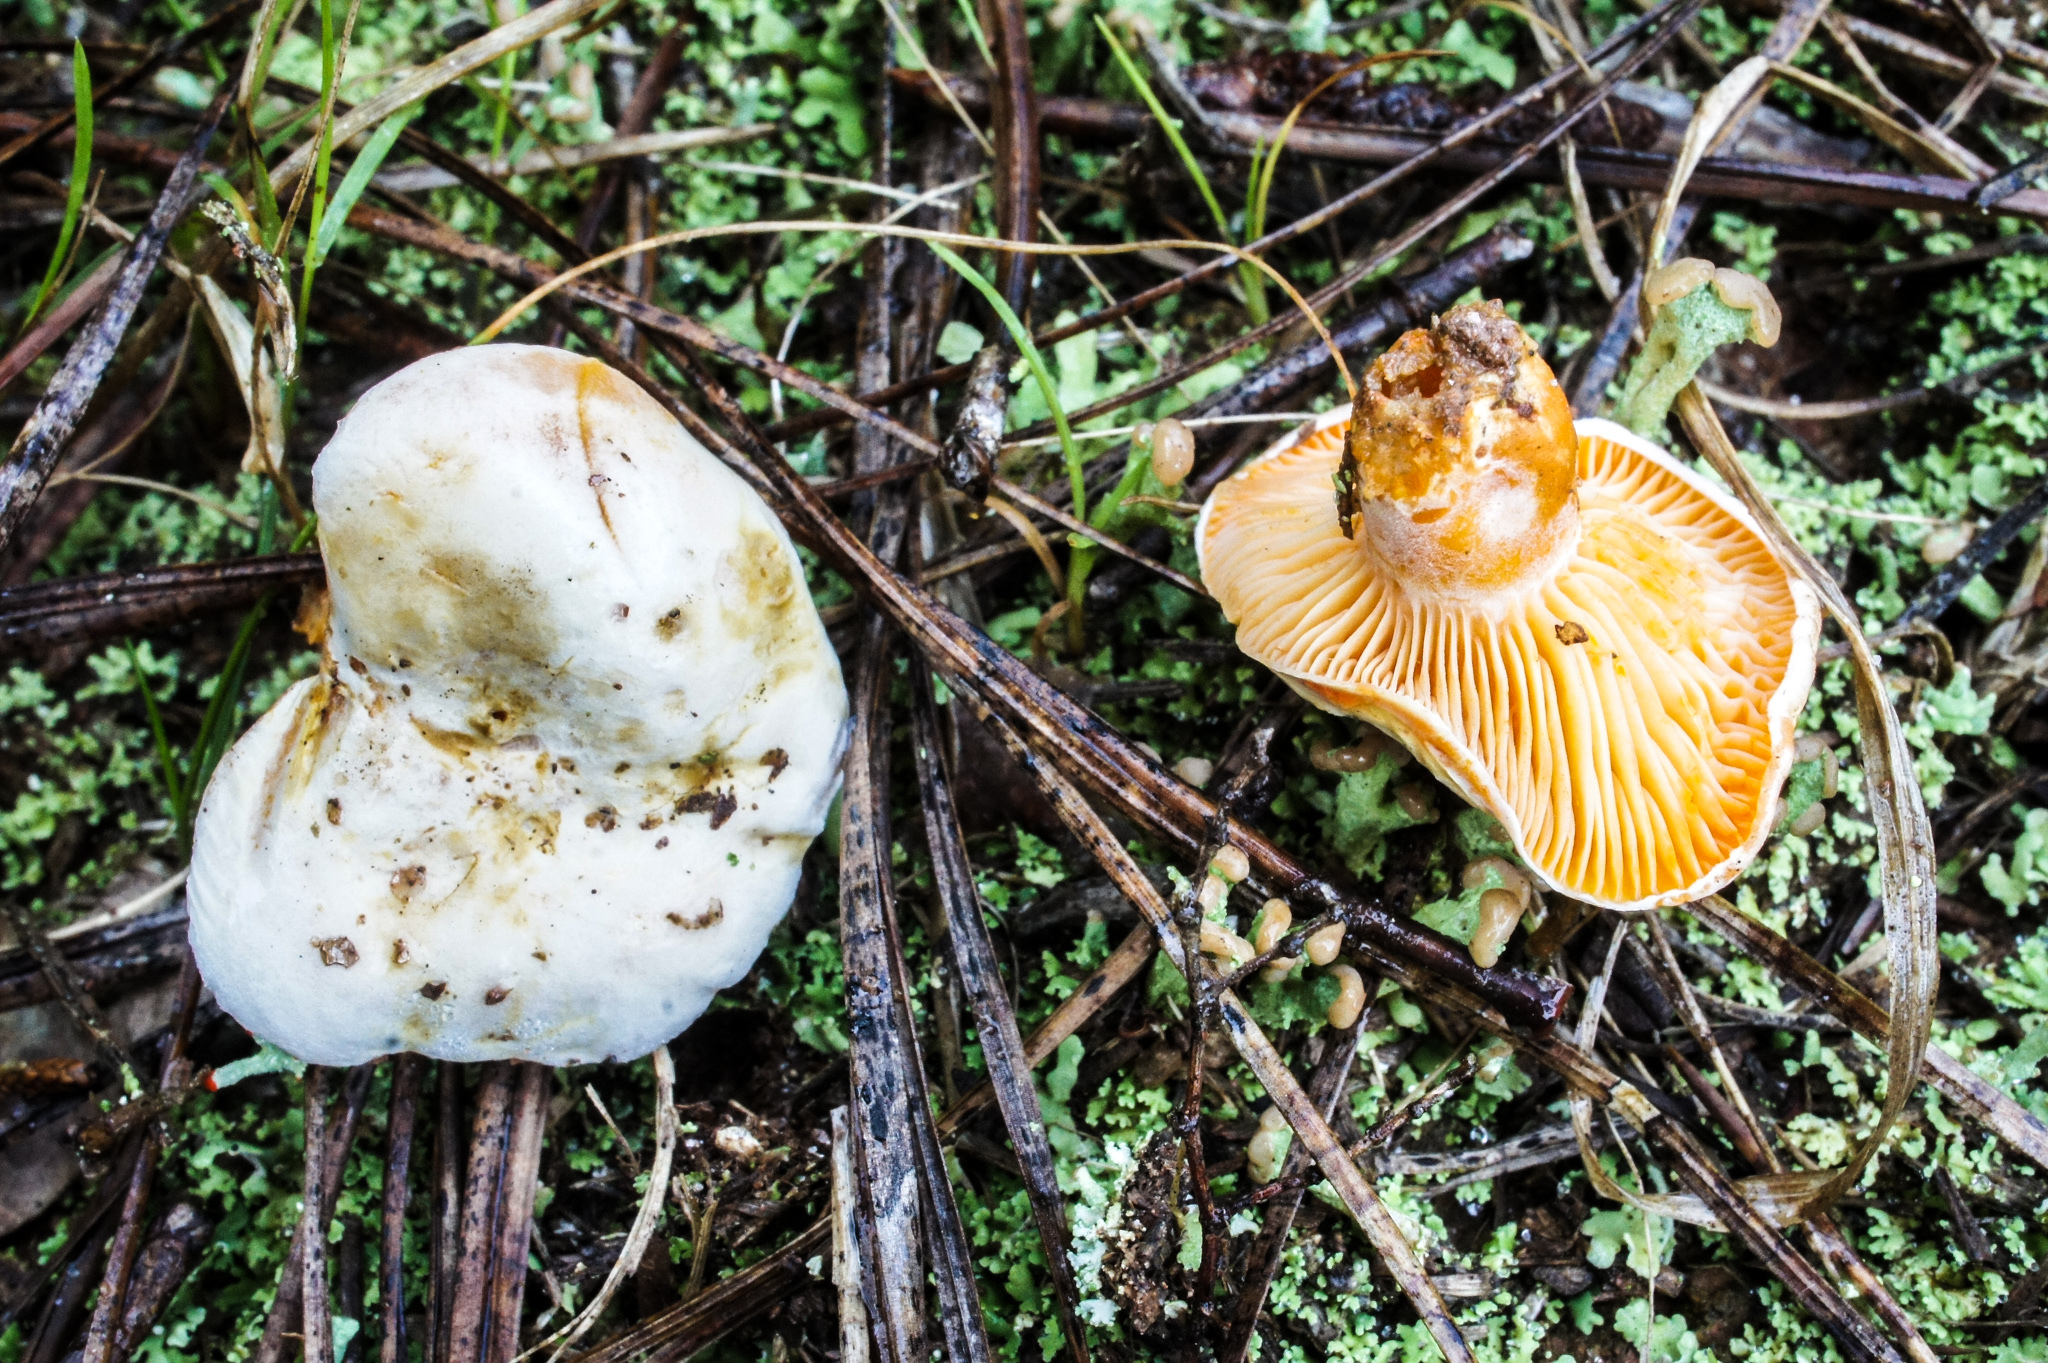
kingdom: Fungi
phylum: Basidiomycota
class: Agaricomycetes
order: Russulales
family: Russulaceae
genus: Lactarius
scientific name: Lactarius salmonicolor
